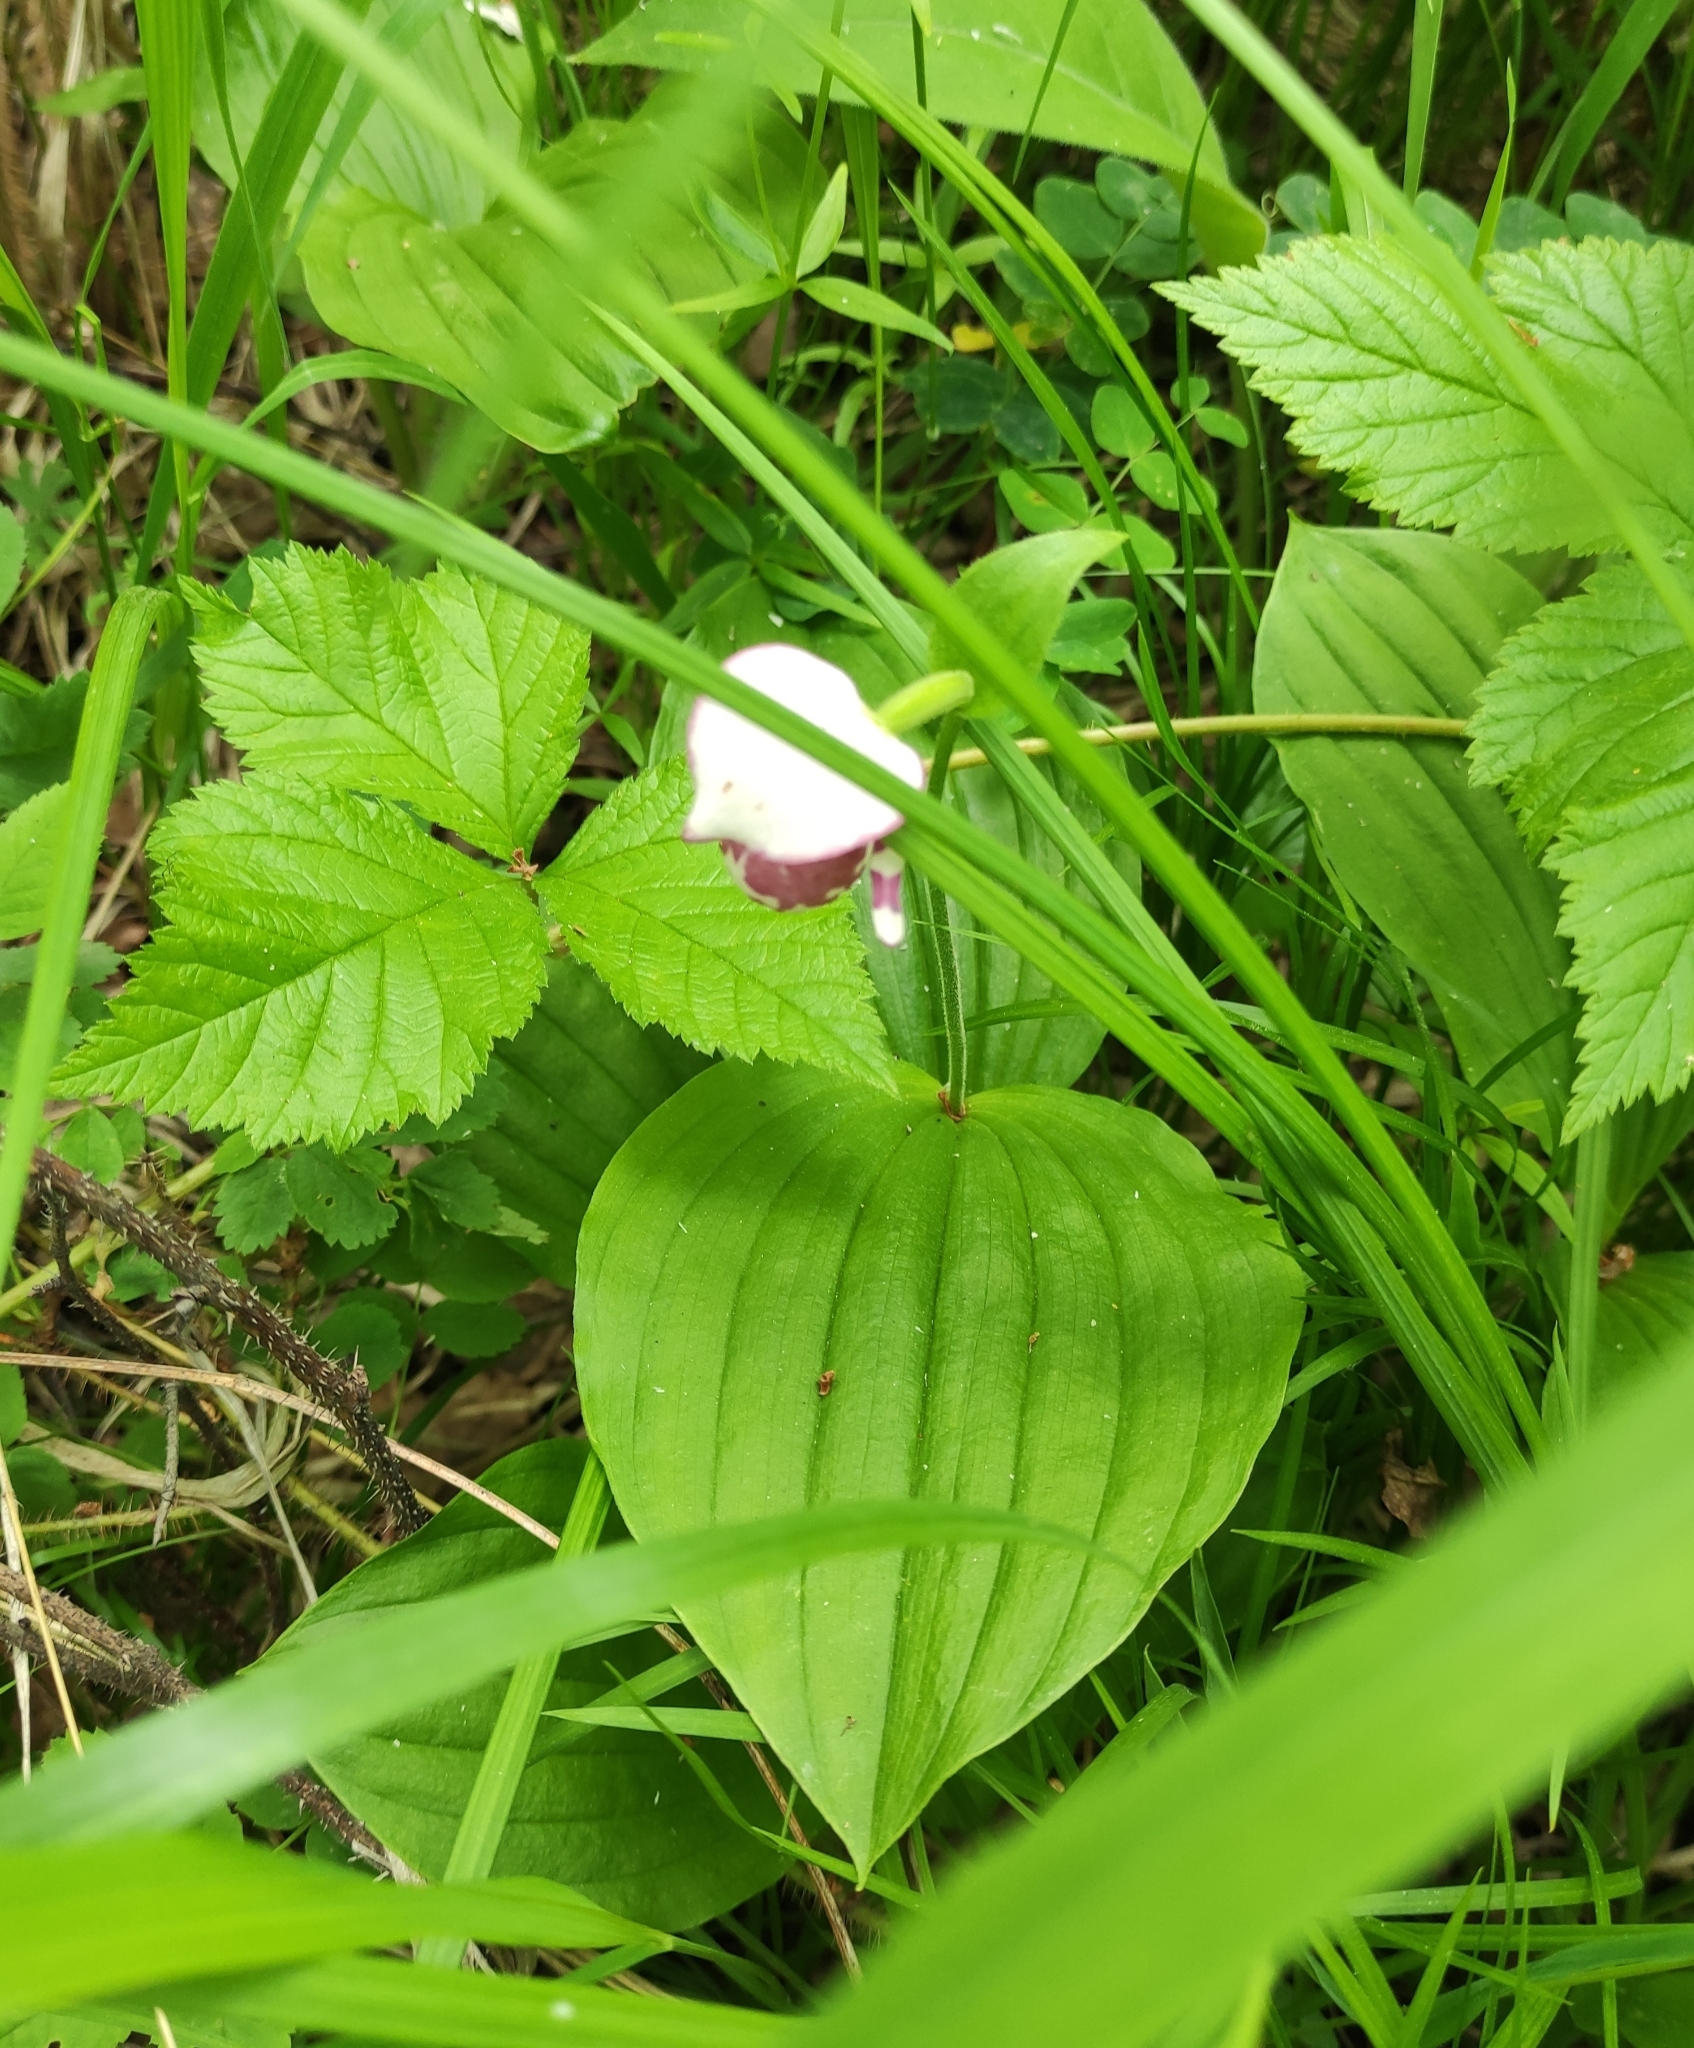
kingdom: Plantae
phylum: Tracheophyta
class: Liliopsida
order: Asparagales
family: Orchidaceae
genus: Cypripedium
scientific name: Cypripedium guttatum
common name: Pink lady slipper
